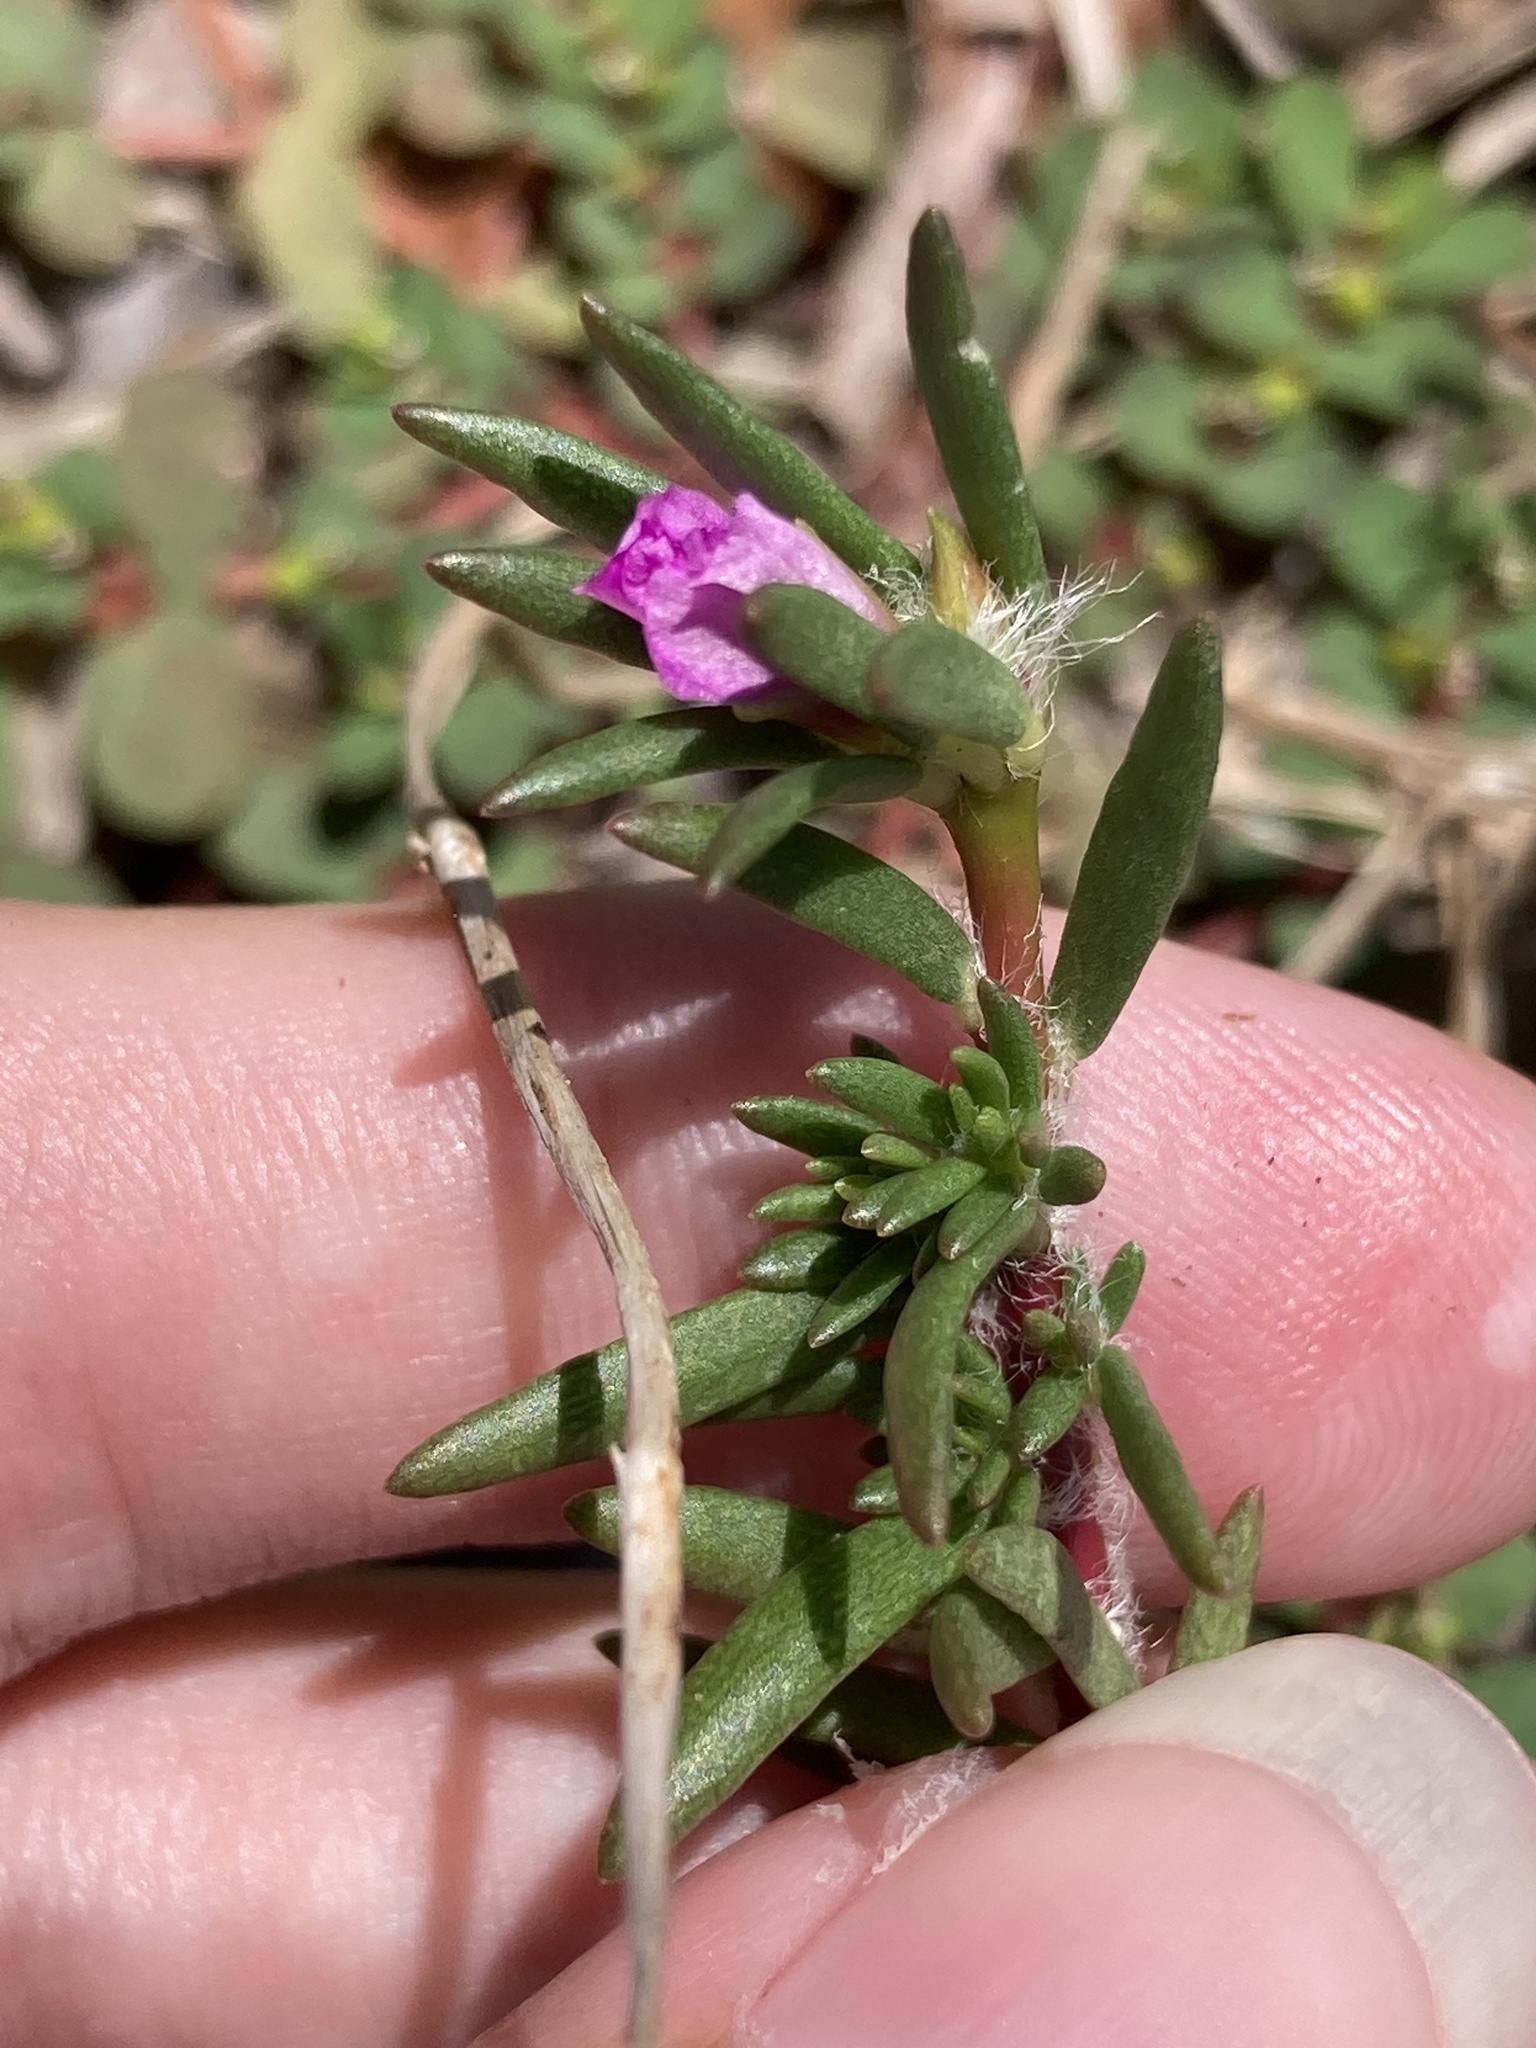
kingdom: Plantae
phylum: Tracheophyta
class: Magnoliopsida
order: Caryophyllales
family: Portulacaceae
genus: Portulaca
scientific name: Portulaca pilosa
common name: Kiss me quick
